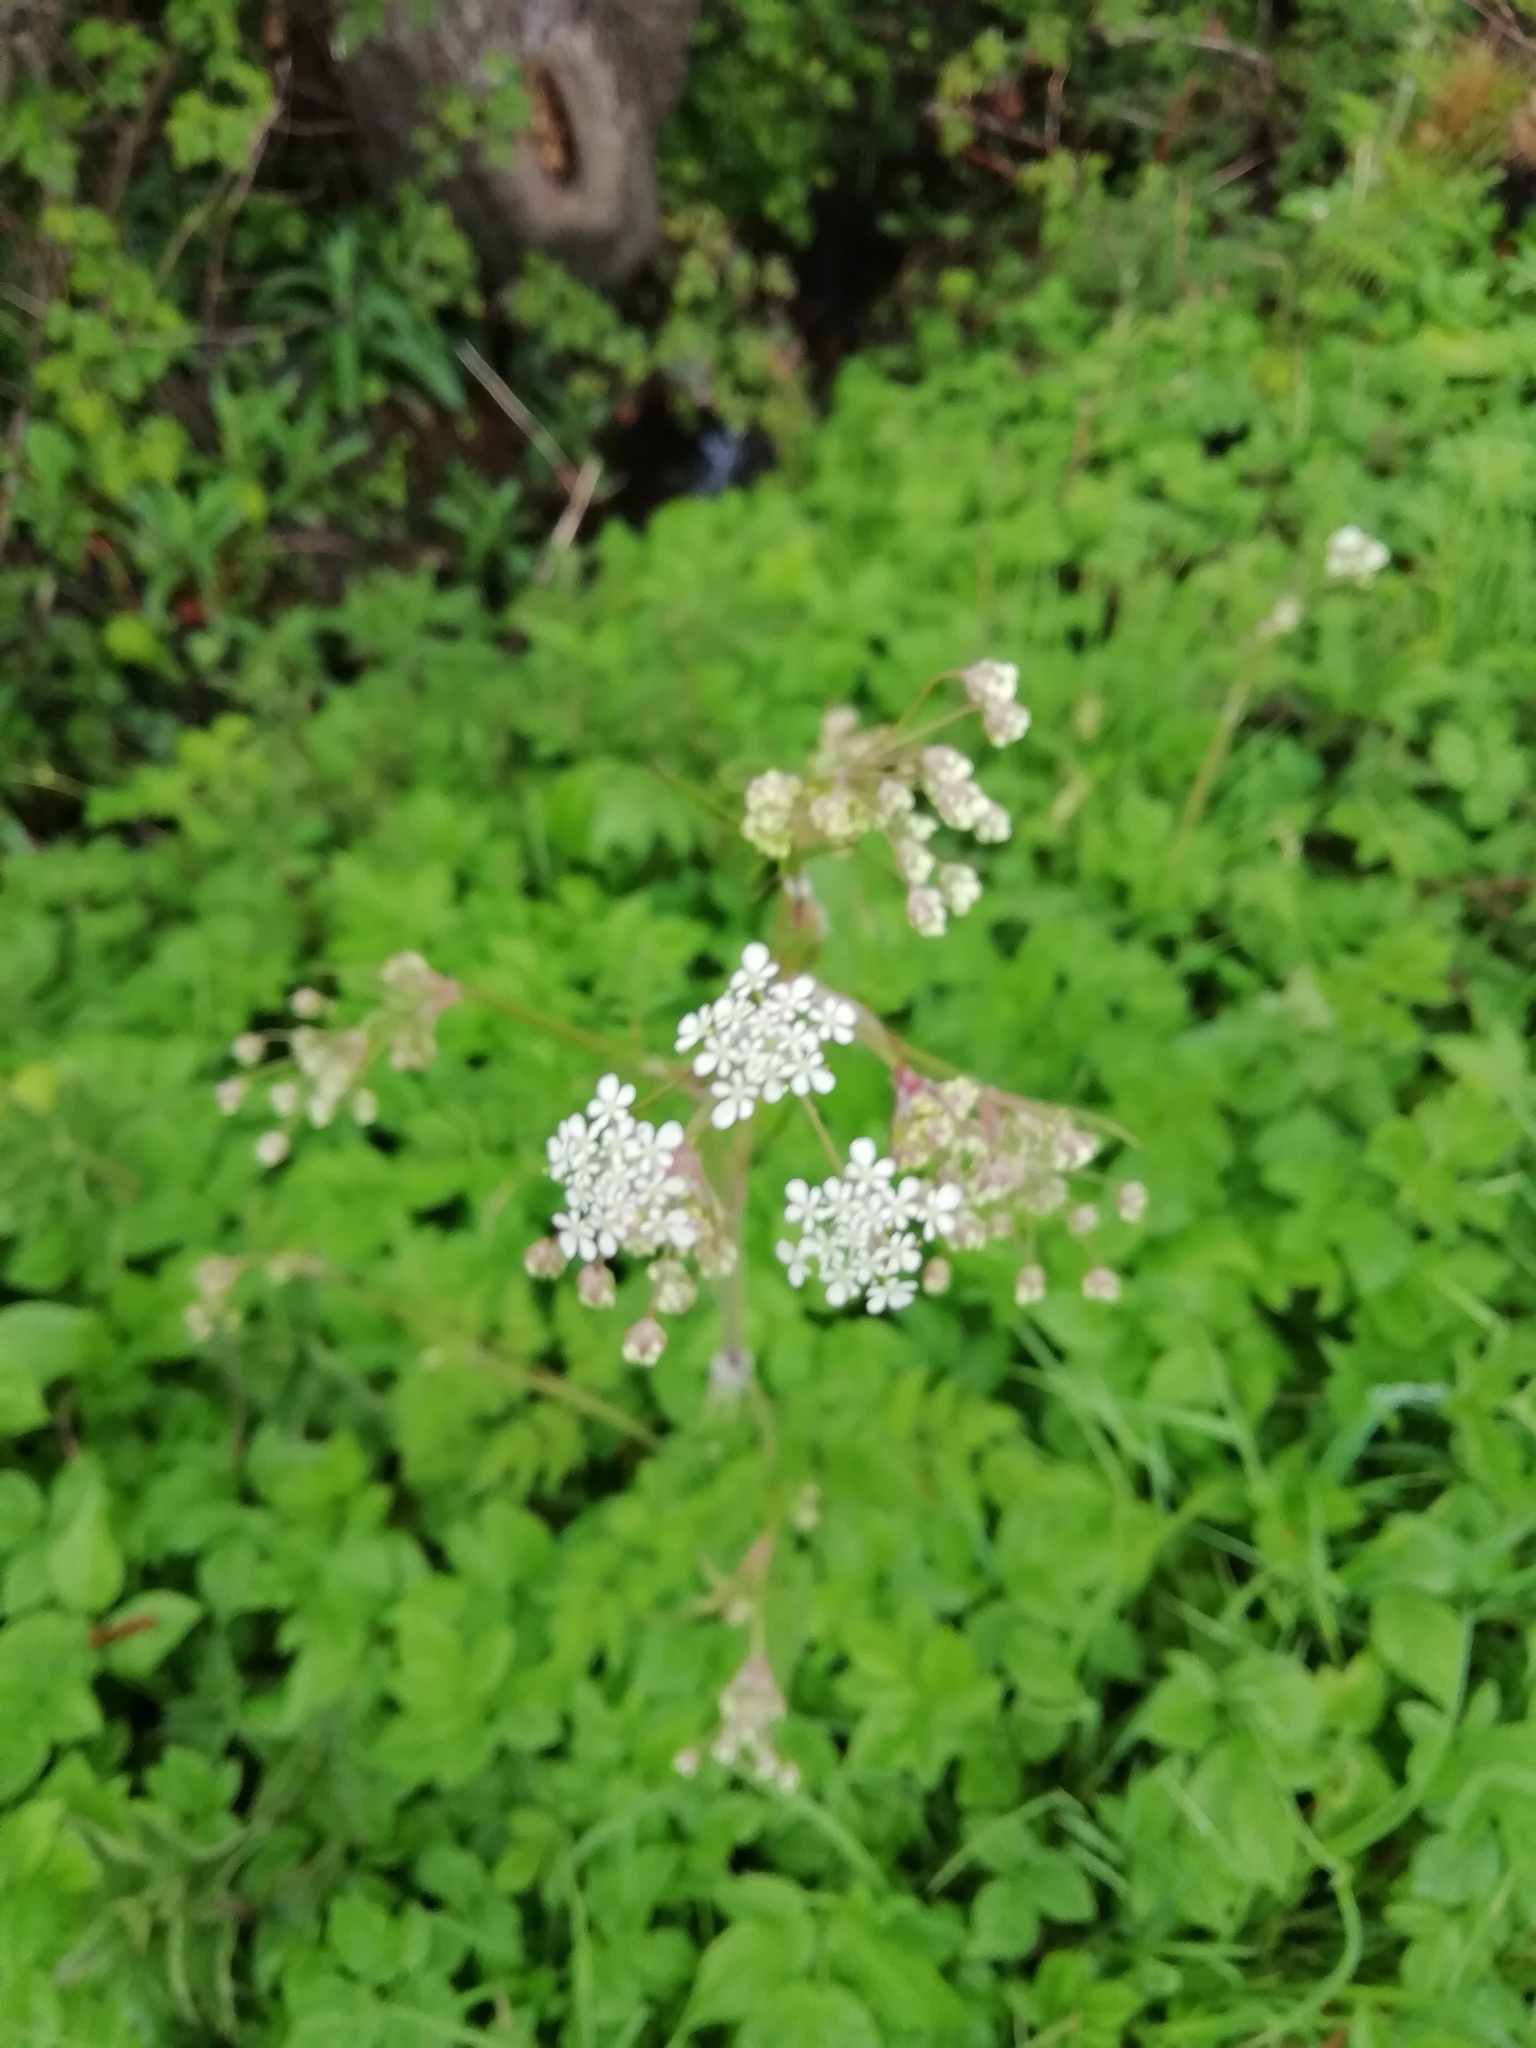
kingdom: Plantae
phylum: Tracheophyta
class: Magnoliopsida
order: Apiales
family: Apiaceae
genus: Anthriscus
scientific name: Anthriscus sylvestris
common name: Cow parsley
